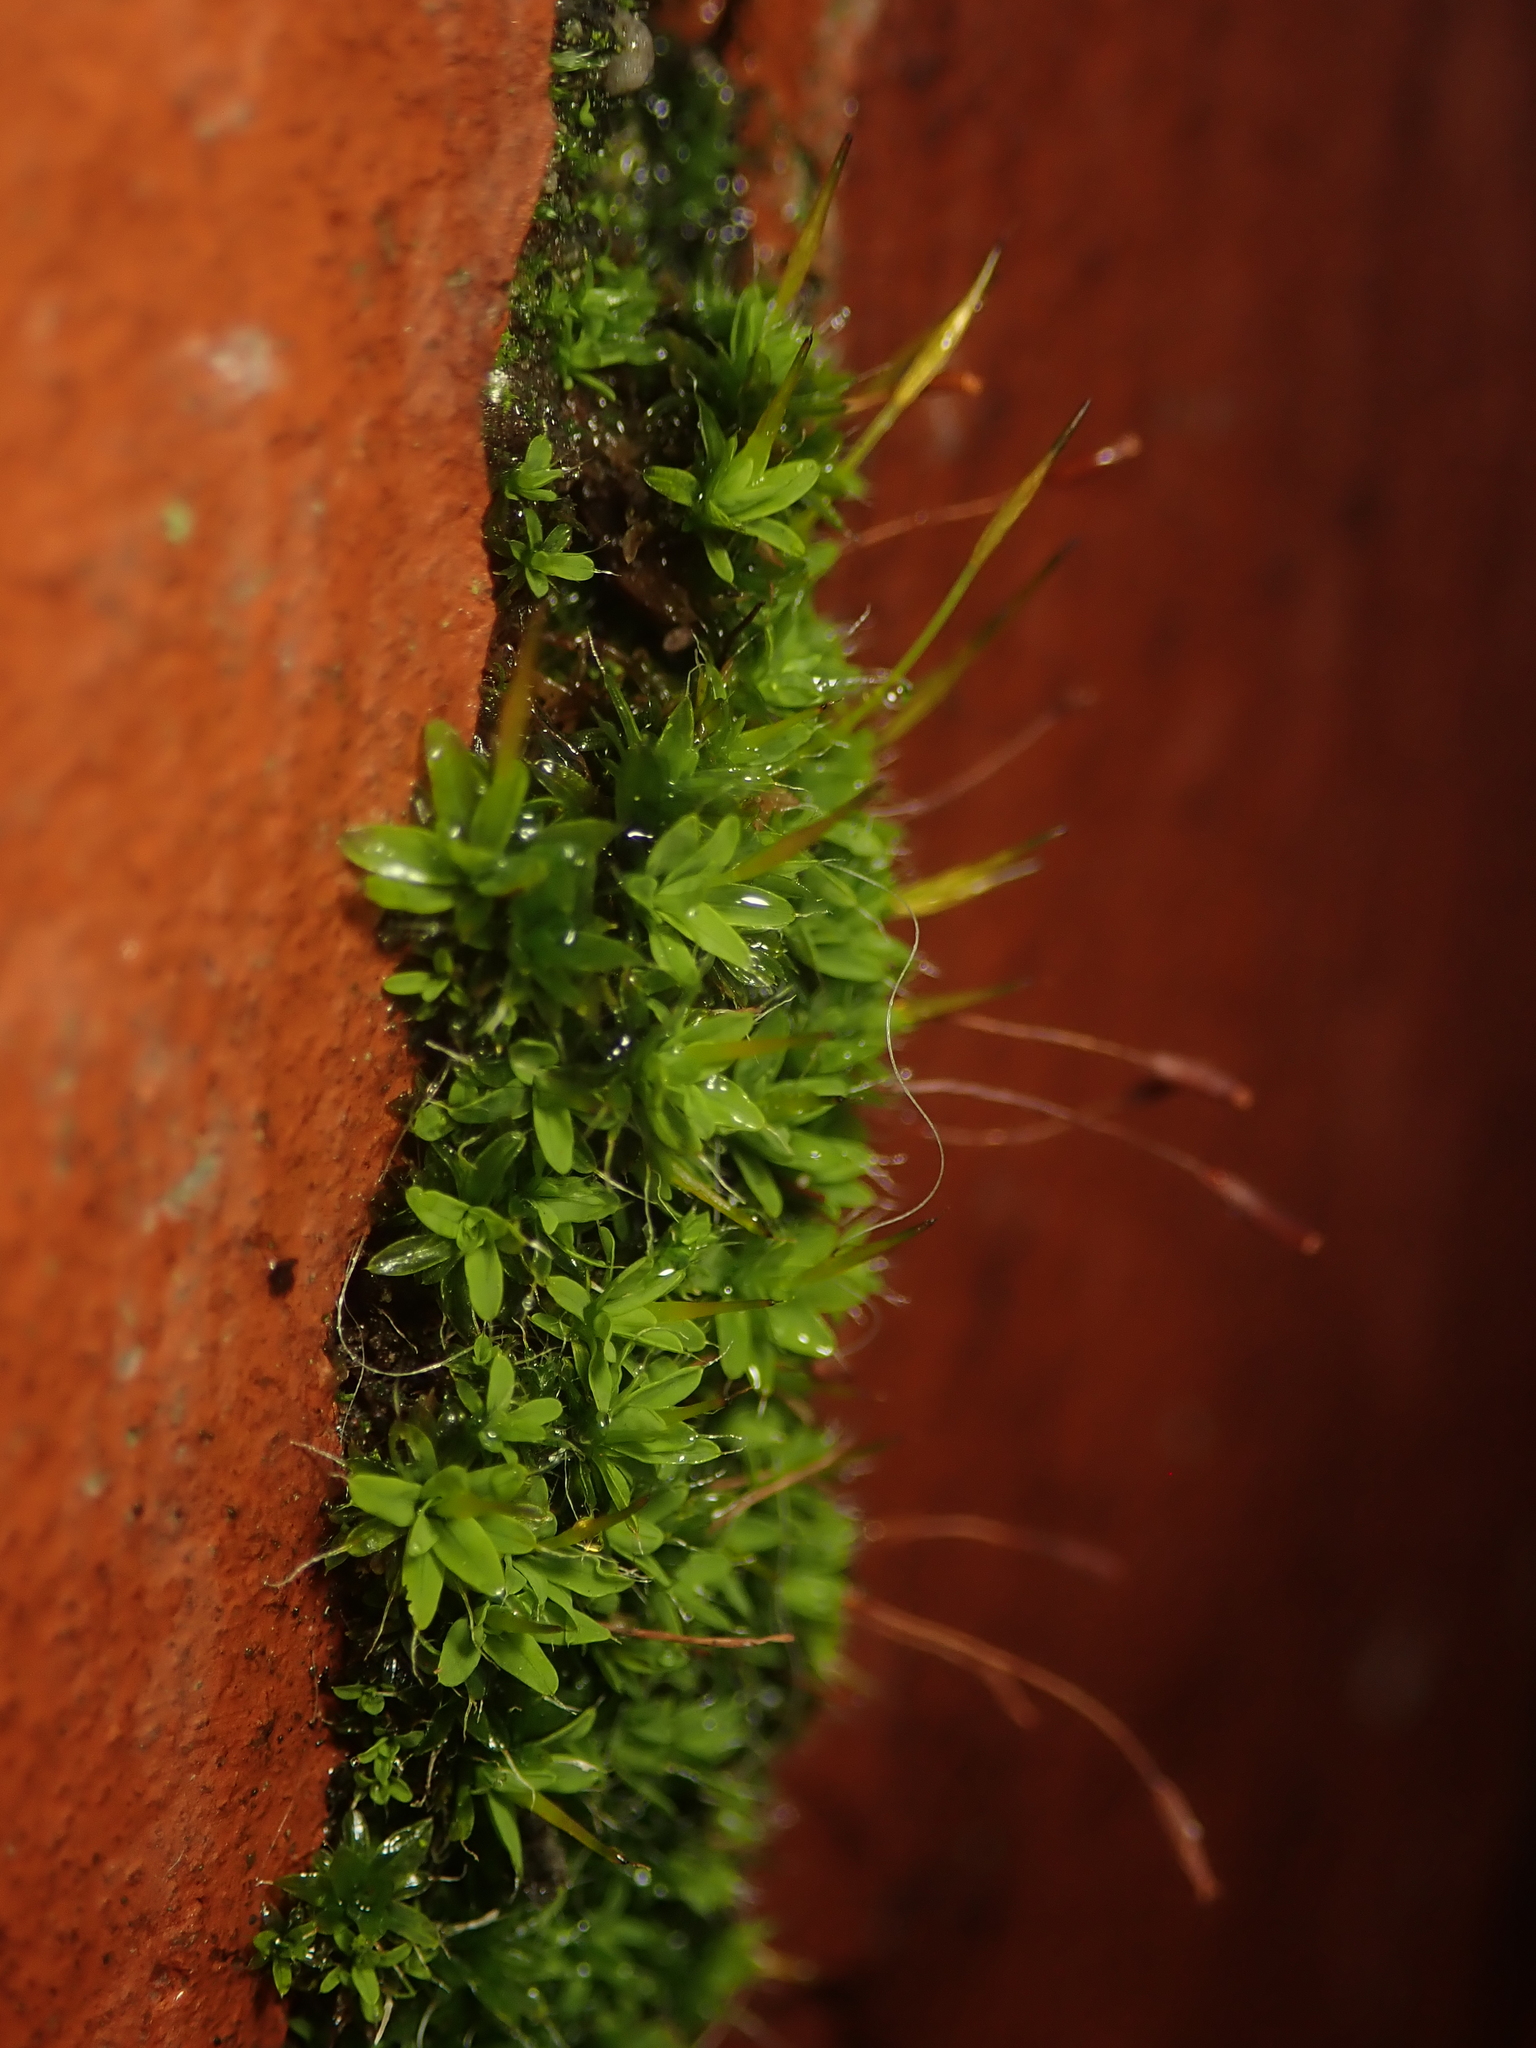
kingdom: Plantae
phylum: Bryophyta
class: Bryopsida
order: Pottiales
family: Pottiaceae
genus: Tortula
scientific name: Tortula muralis
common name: Wall screw-moss
